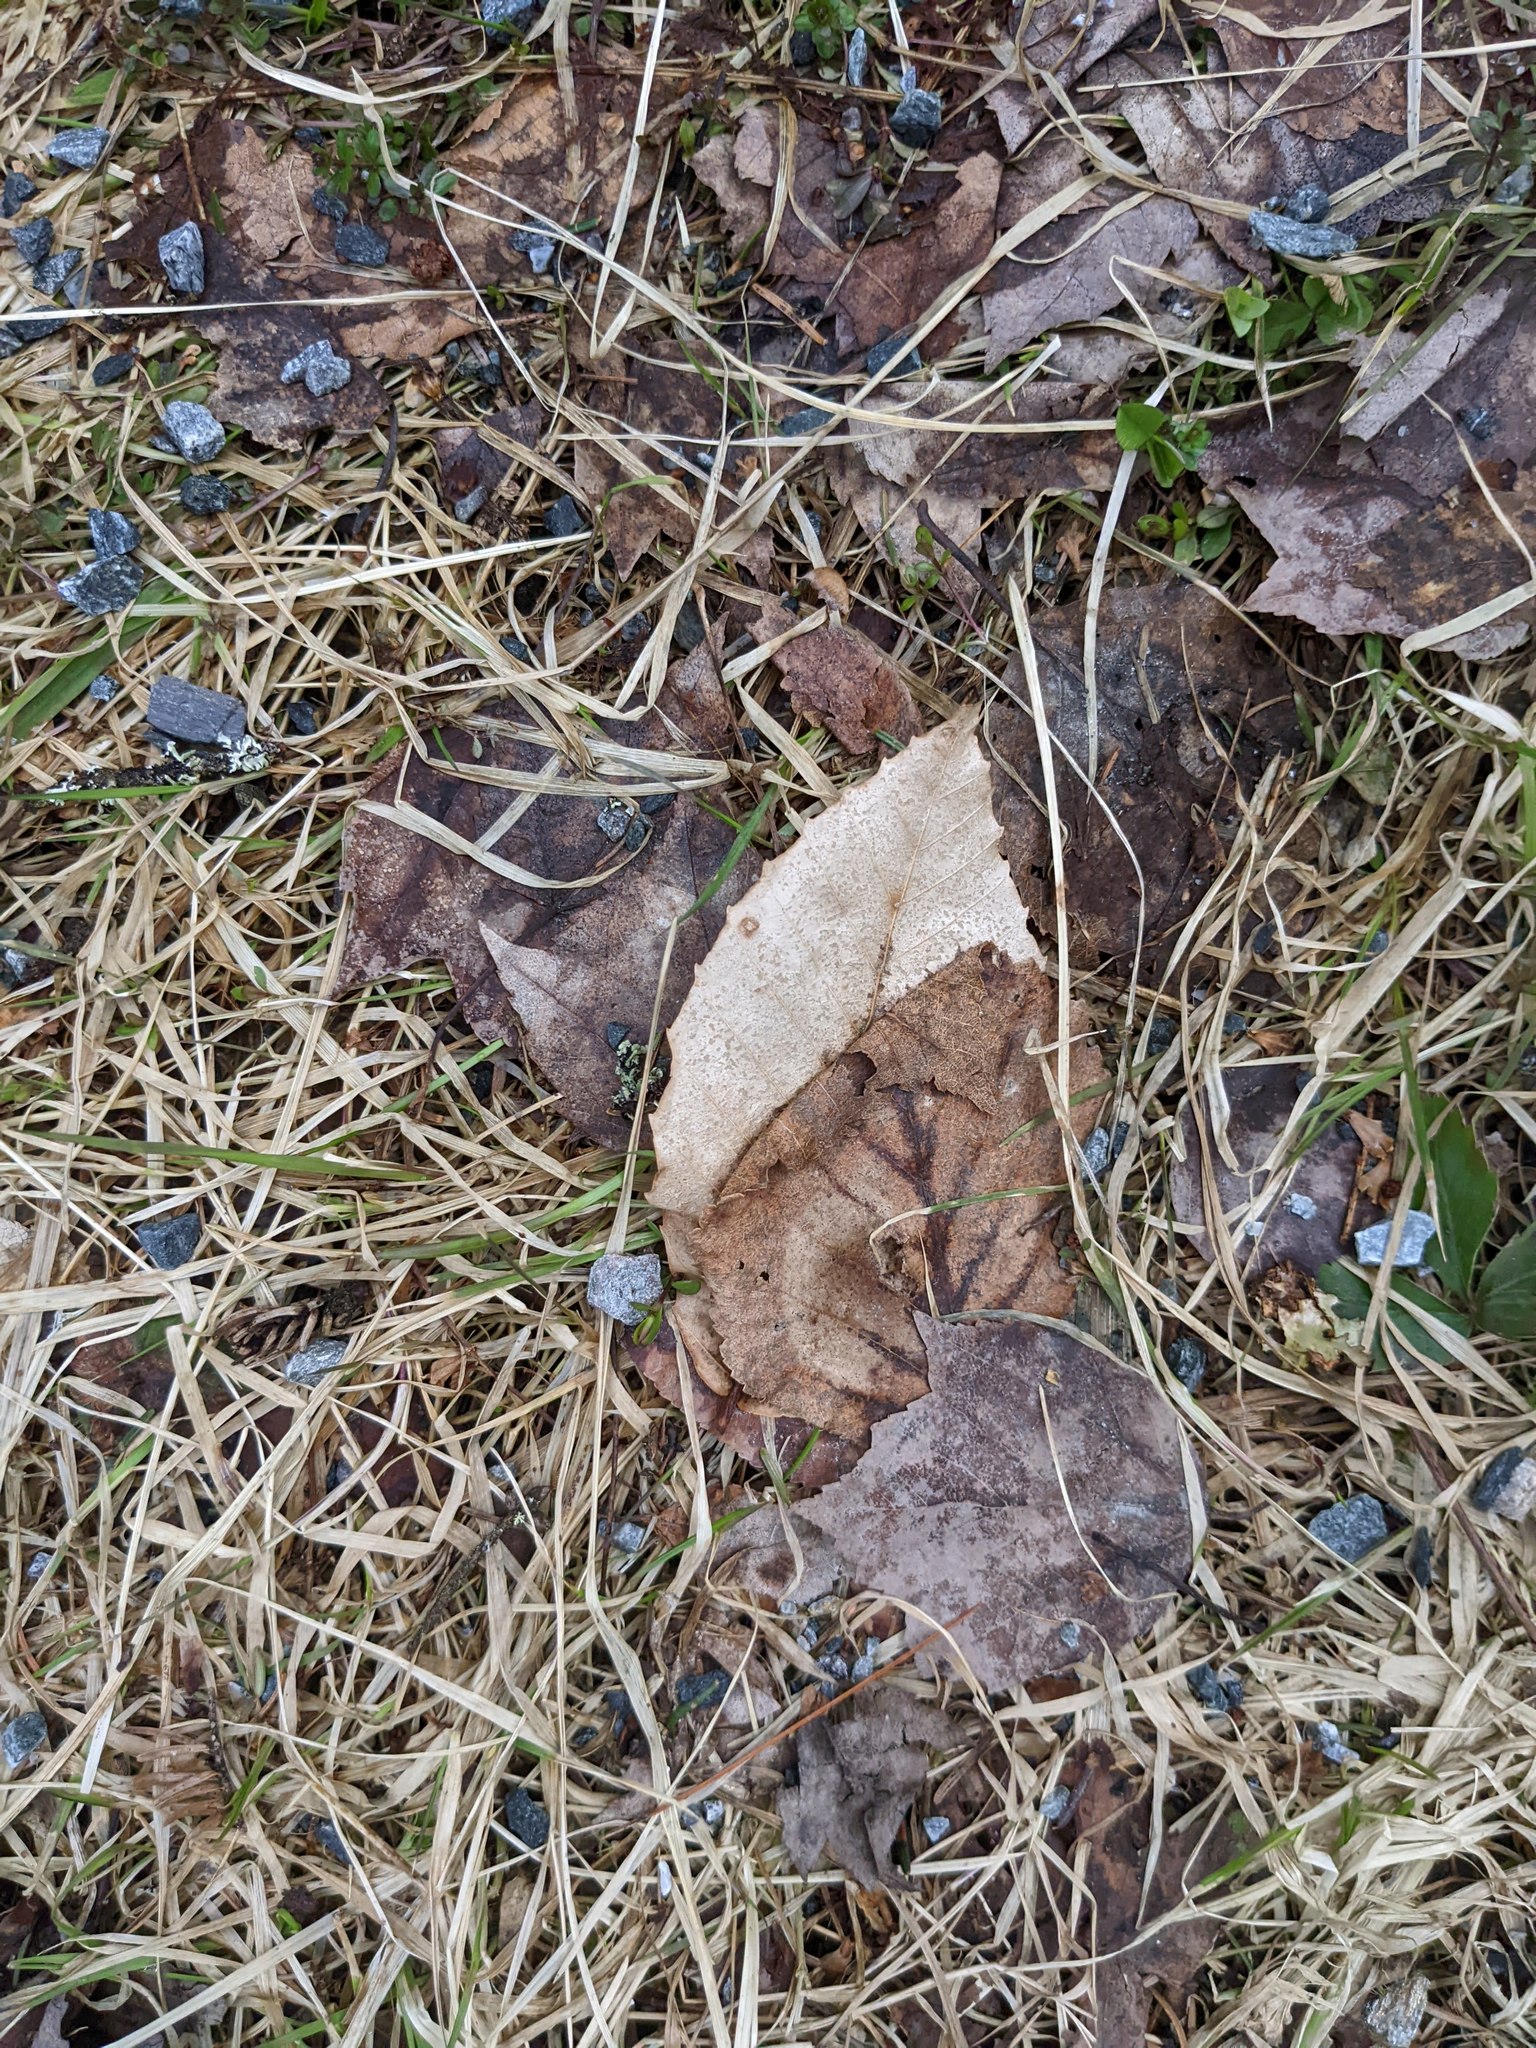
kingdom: Plantae
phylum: Tracheophyta
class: Magnoliopsida
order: Fagales
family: Fagaceae
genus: Fagus
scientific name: Fagus grandifolia
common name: American beech
